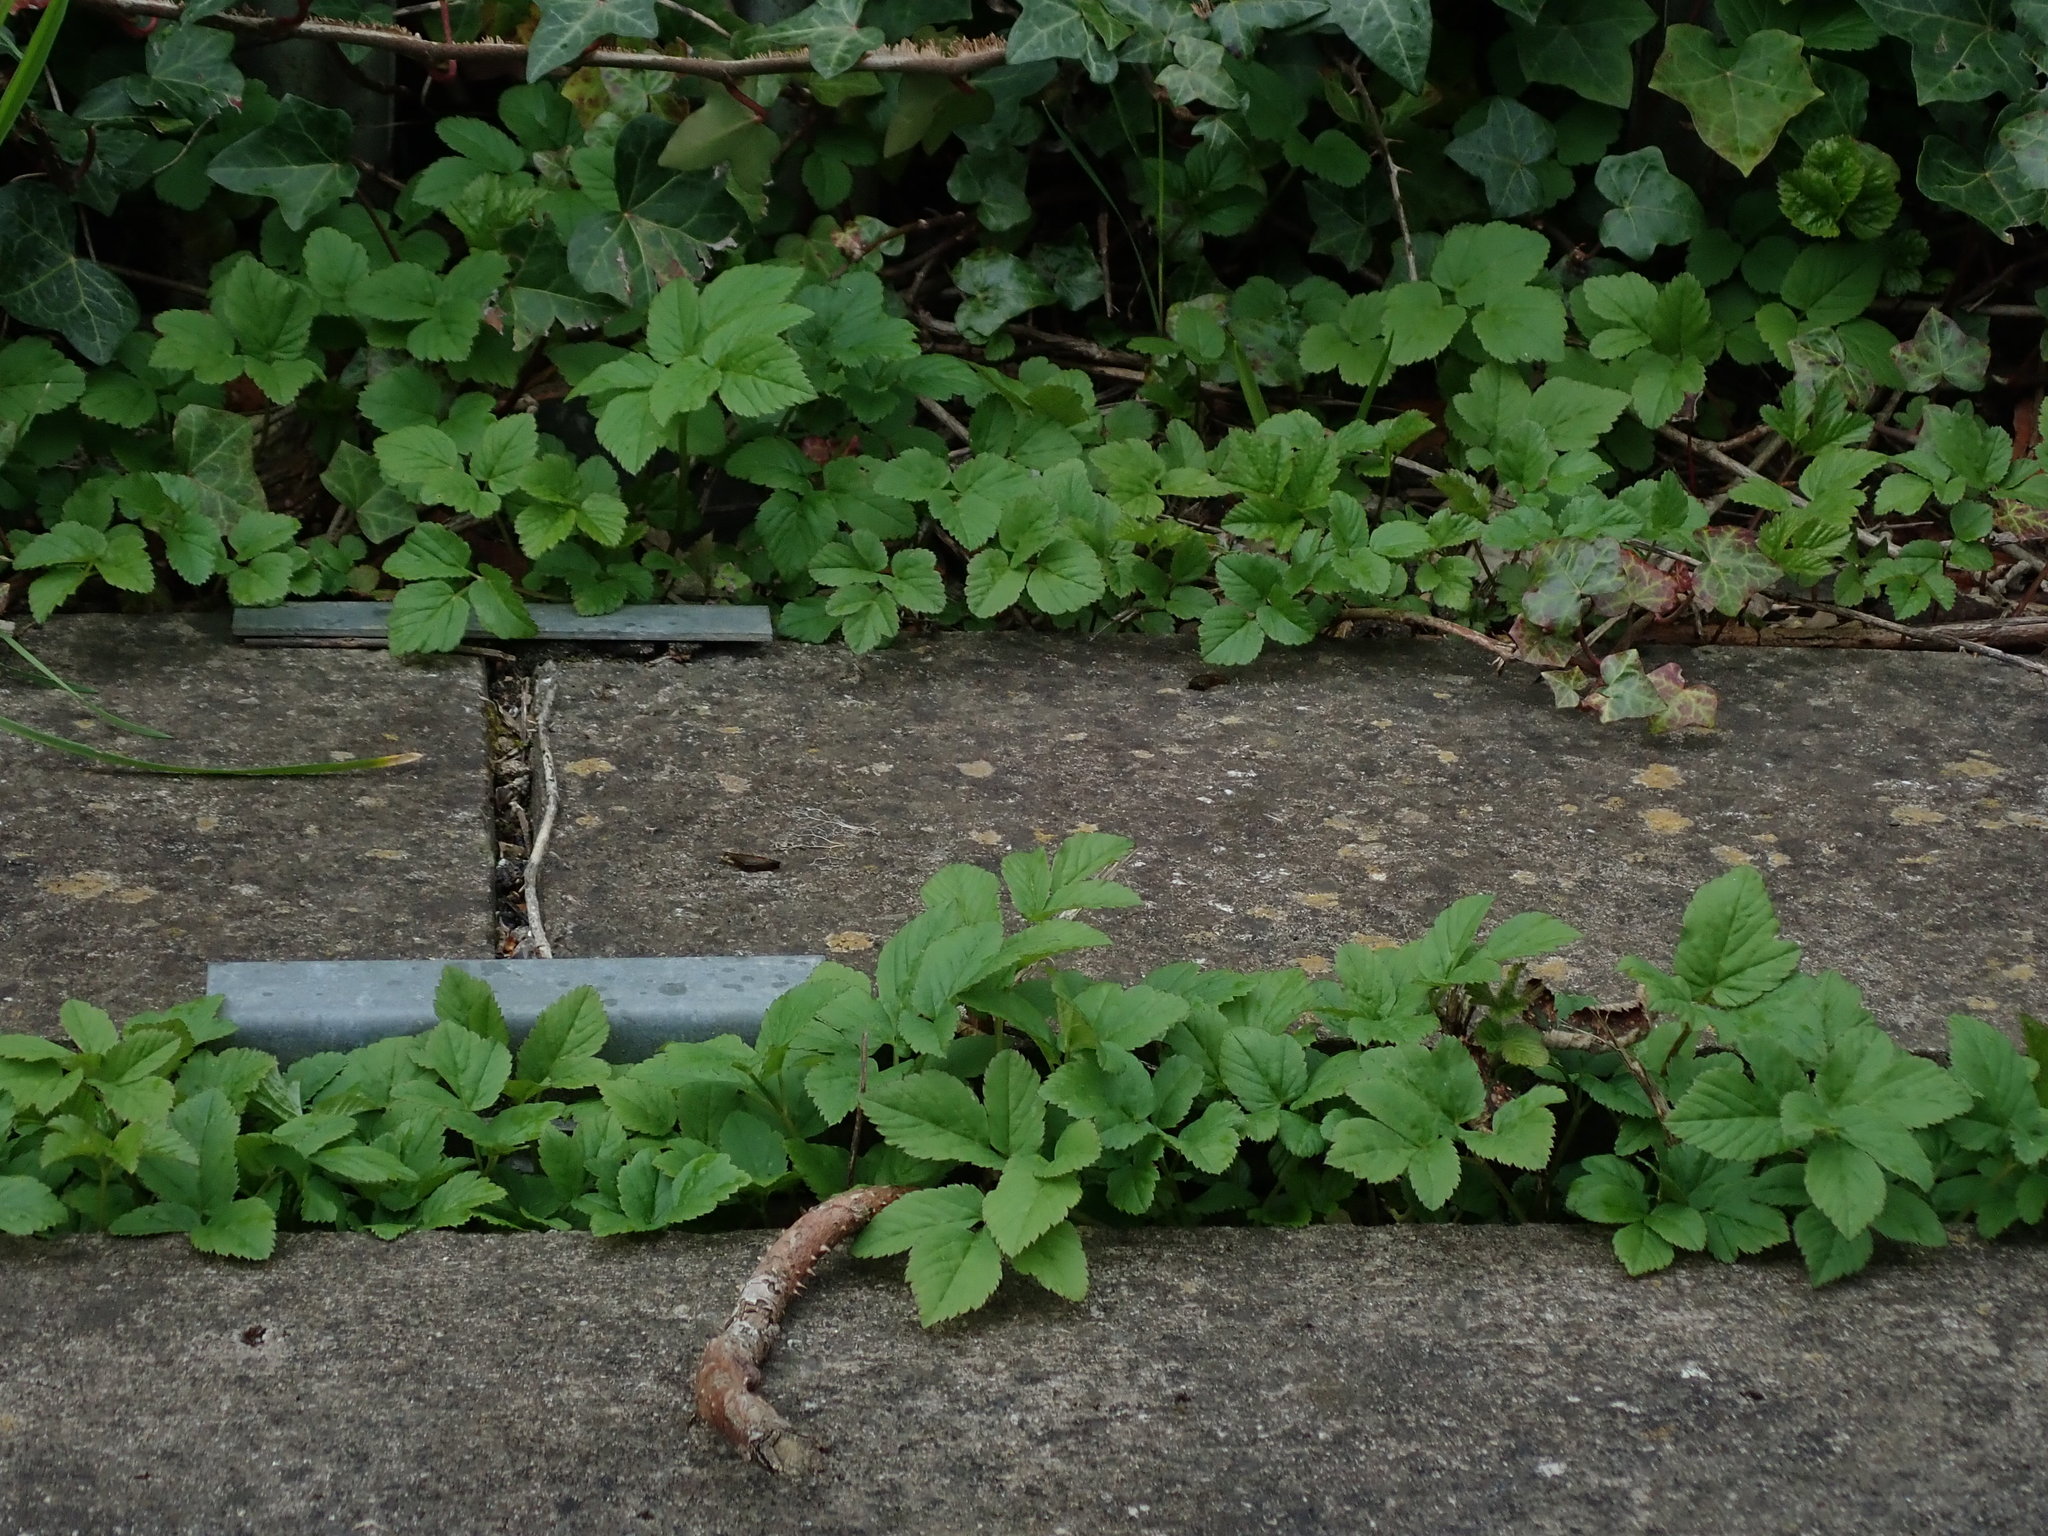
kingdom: Plantae
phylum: Tracheophyta
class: Magnoliopsida
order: Apiales
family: Apiaceae
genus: Aegopodium
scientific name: Aegopodium podagraria
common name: Ground-elder
